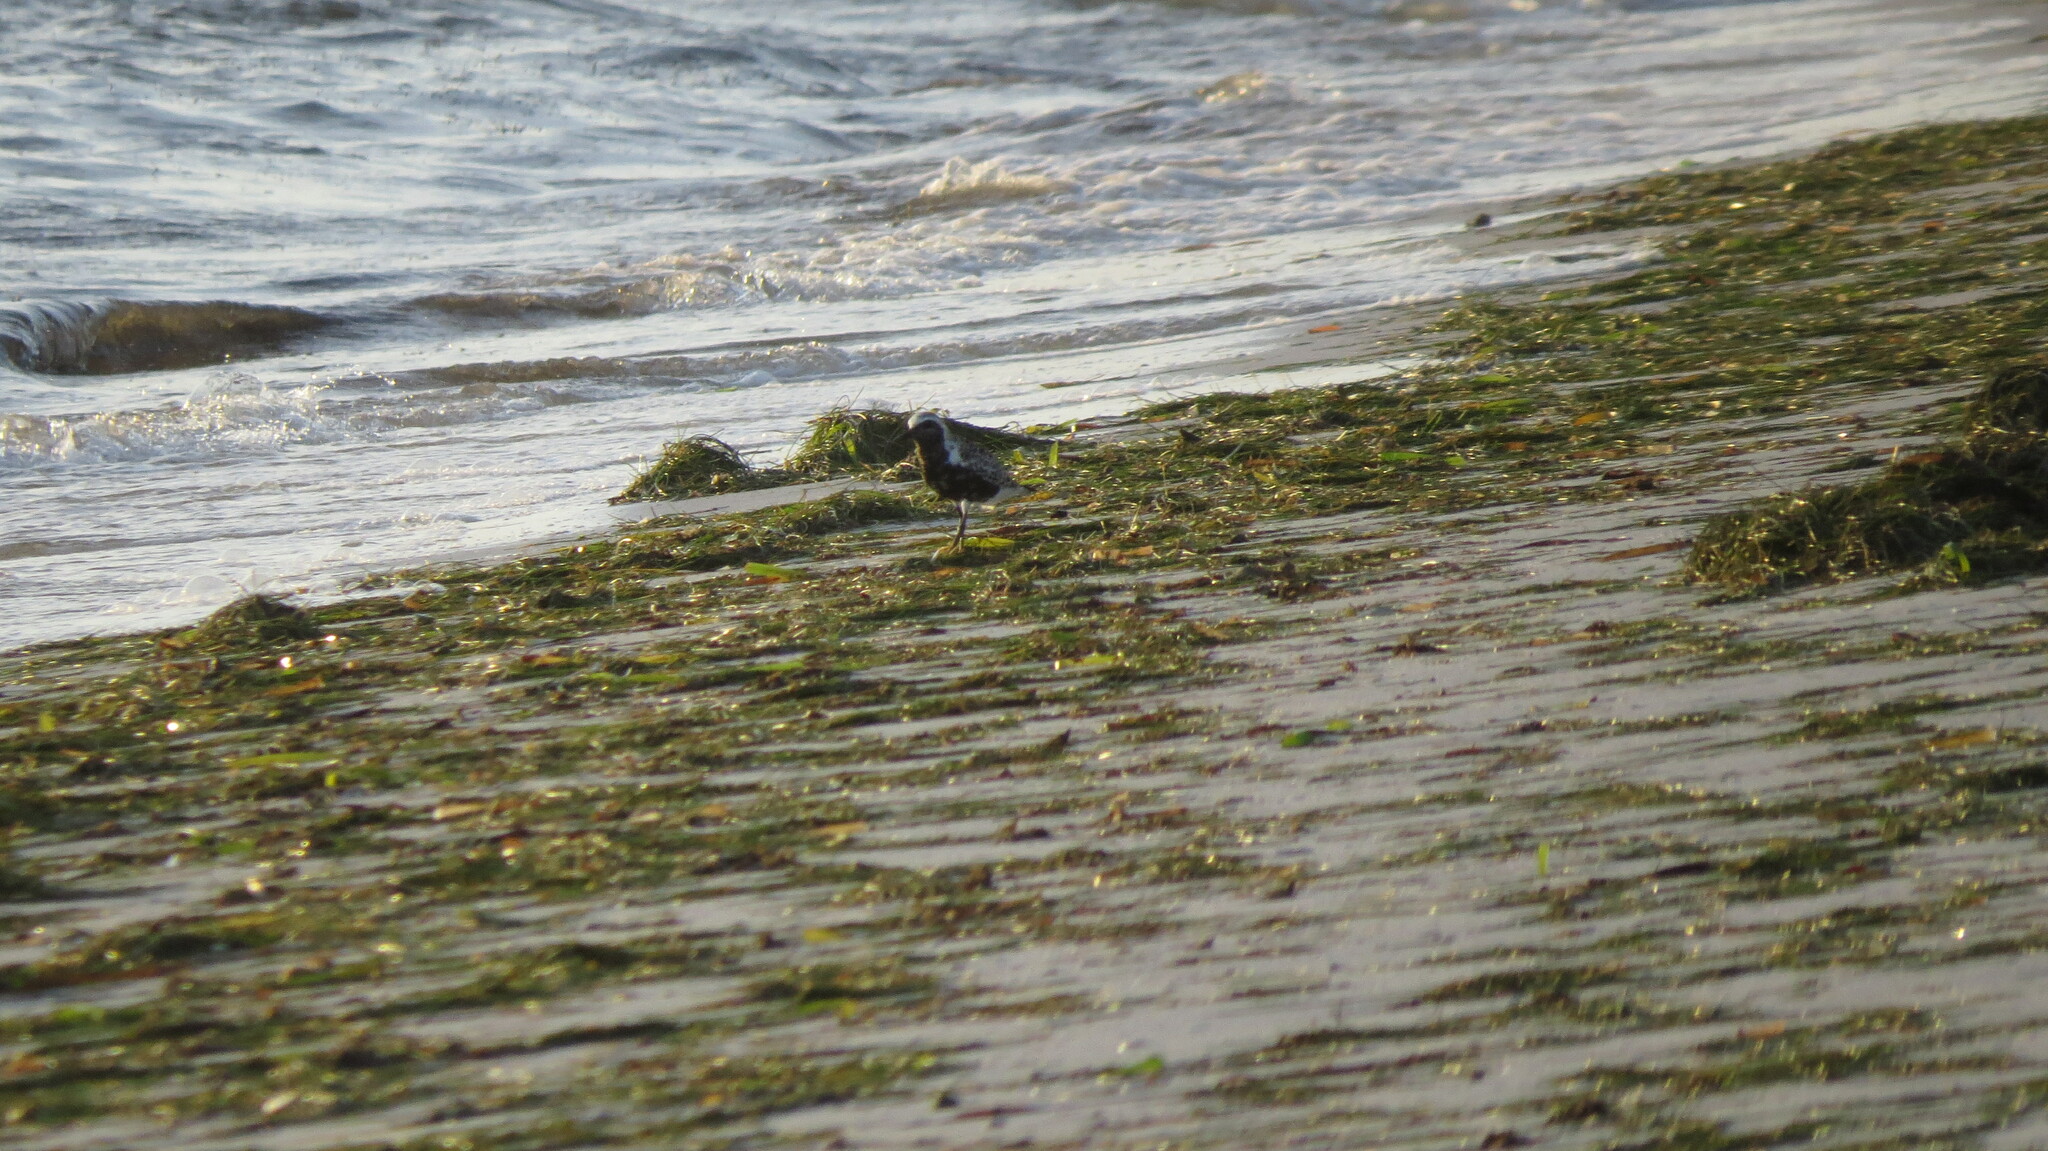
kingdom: Animalia
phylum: Chordata
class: Aves
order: Charadriiformes
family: Charadriidae
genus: Pluvialis
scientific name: Pluvialis squatarola
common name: Grey plover
